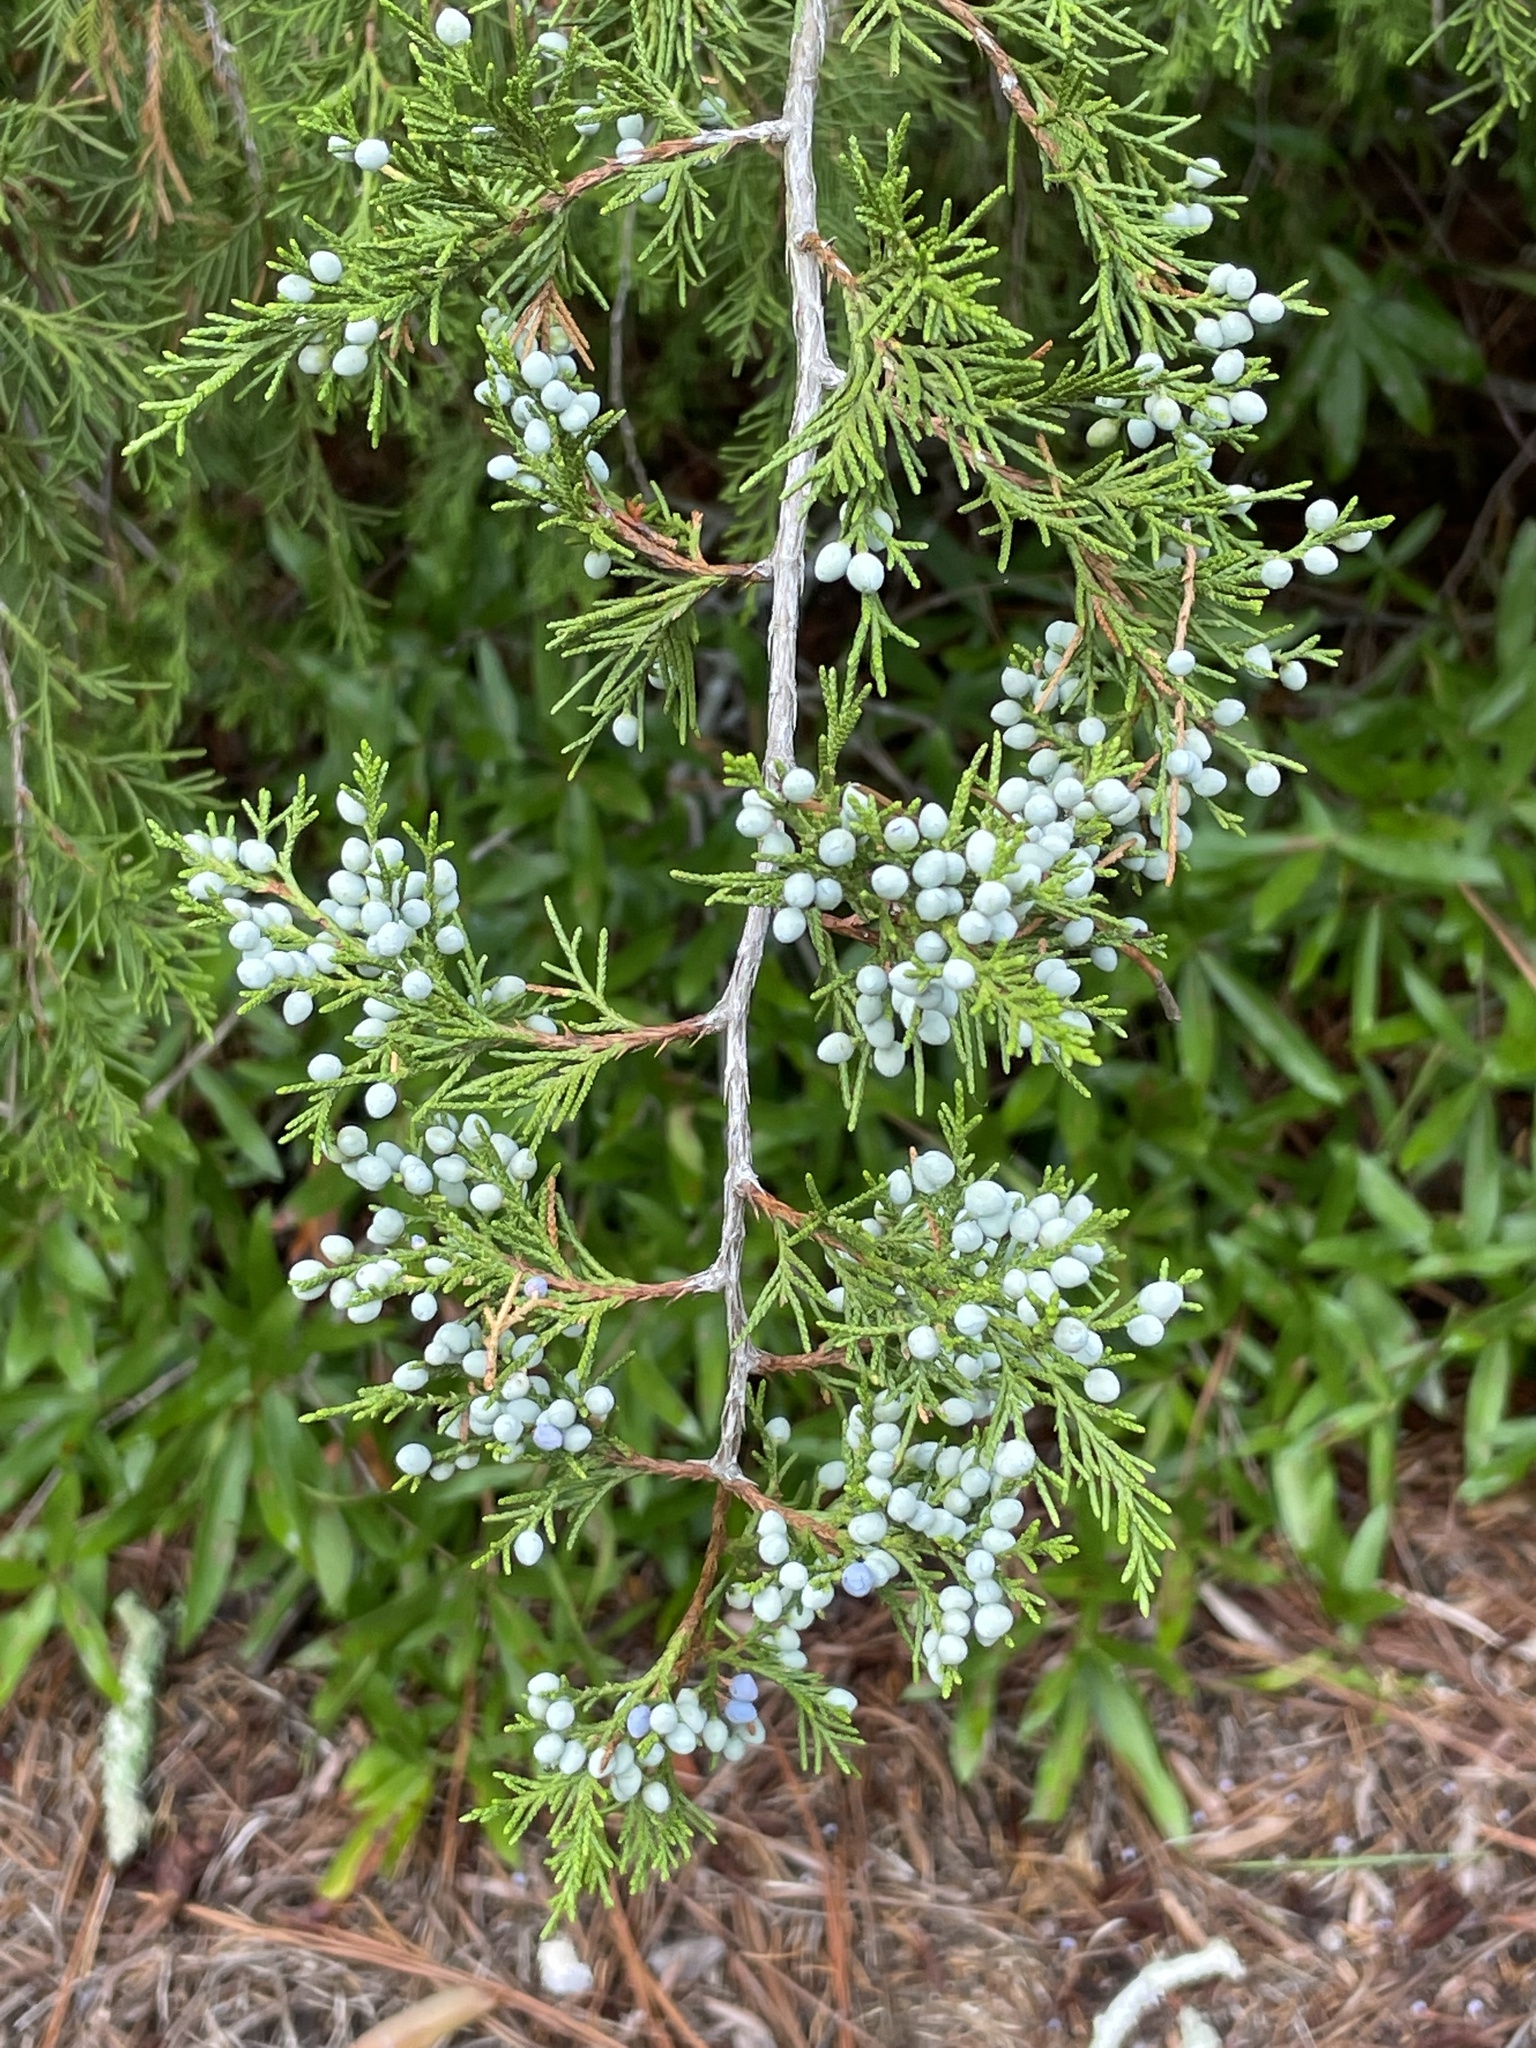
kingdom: Plantae
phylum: Tracheophyta
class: Pinopsida
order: Pinales
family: Cupressaceae
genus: Juniperus
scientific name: Juniperus virginiana
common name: Red juniper
